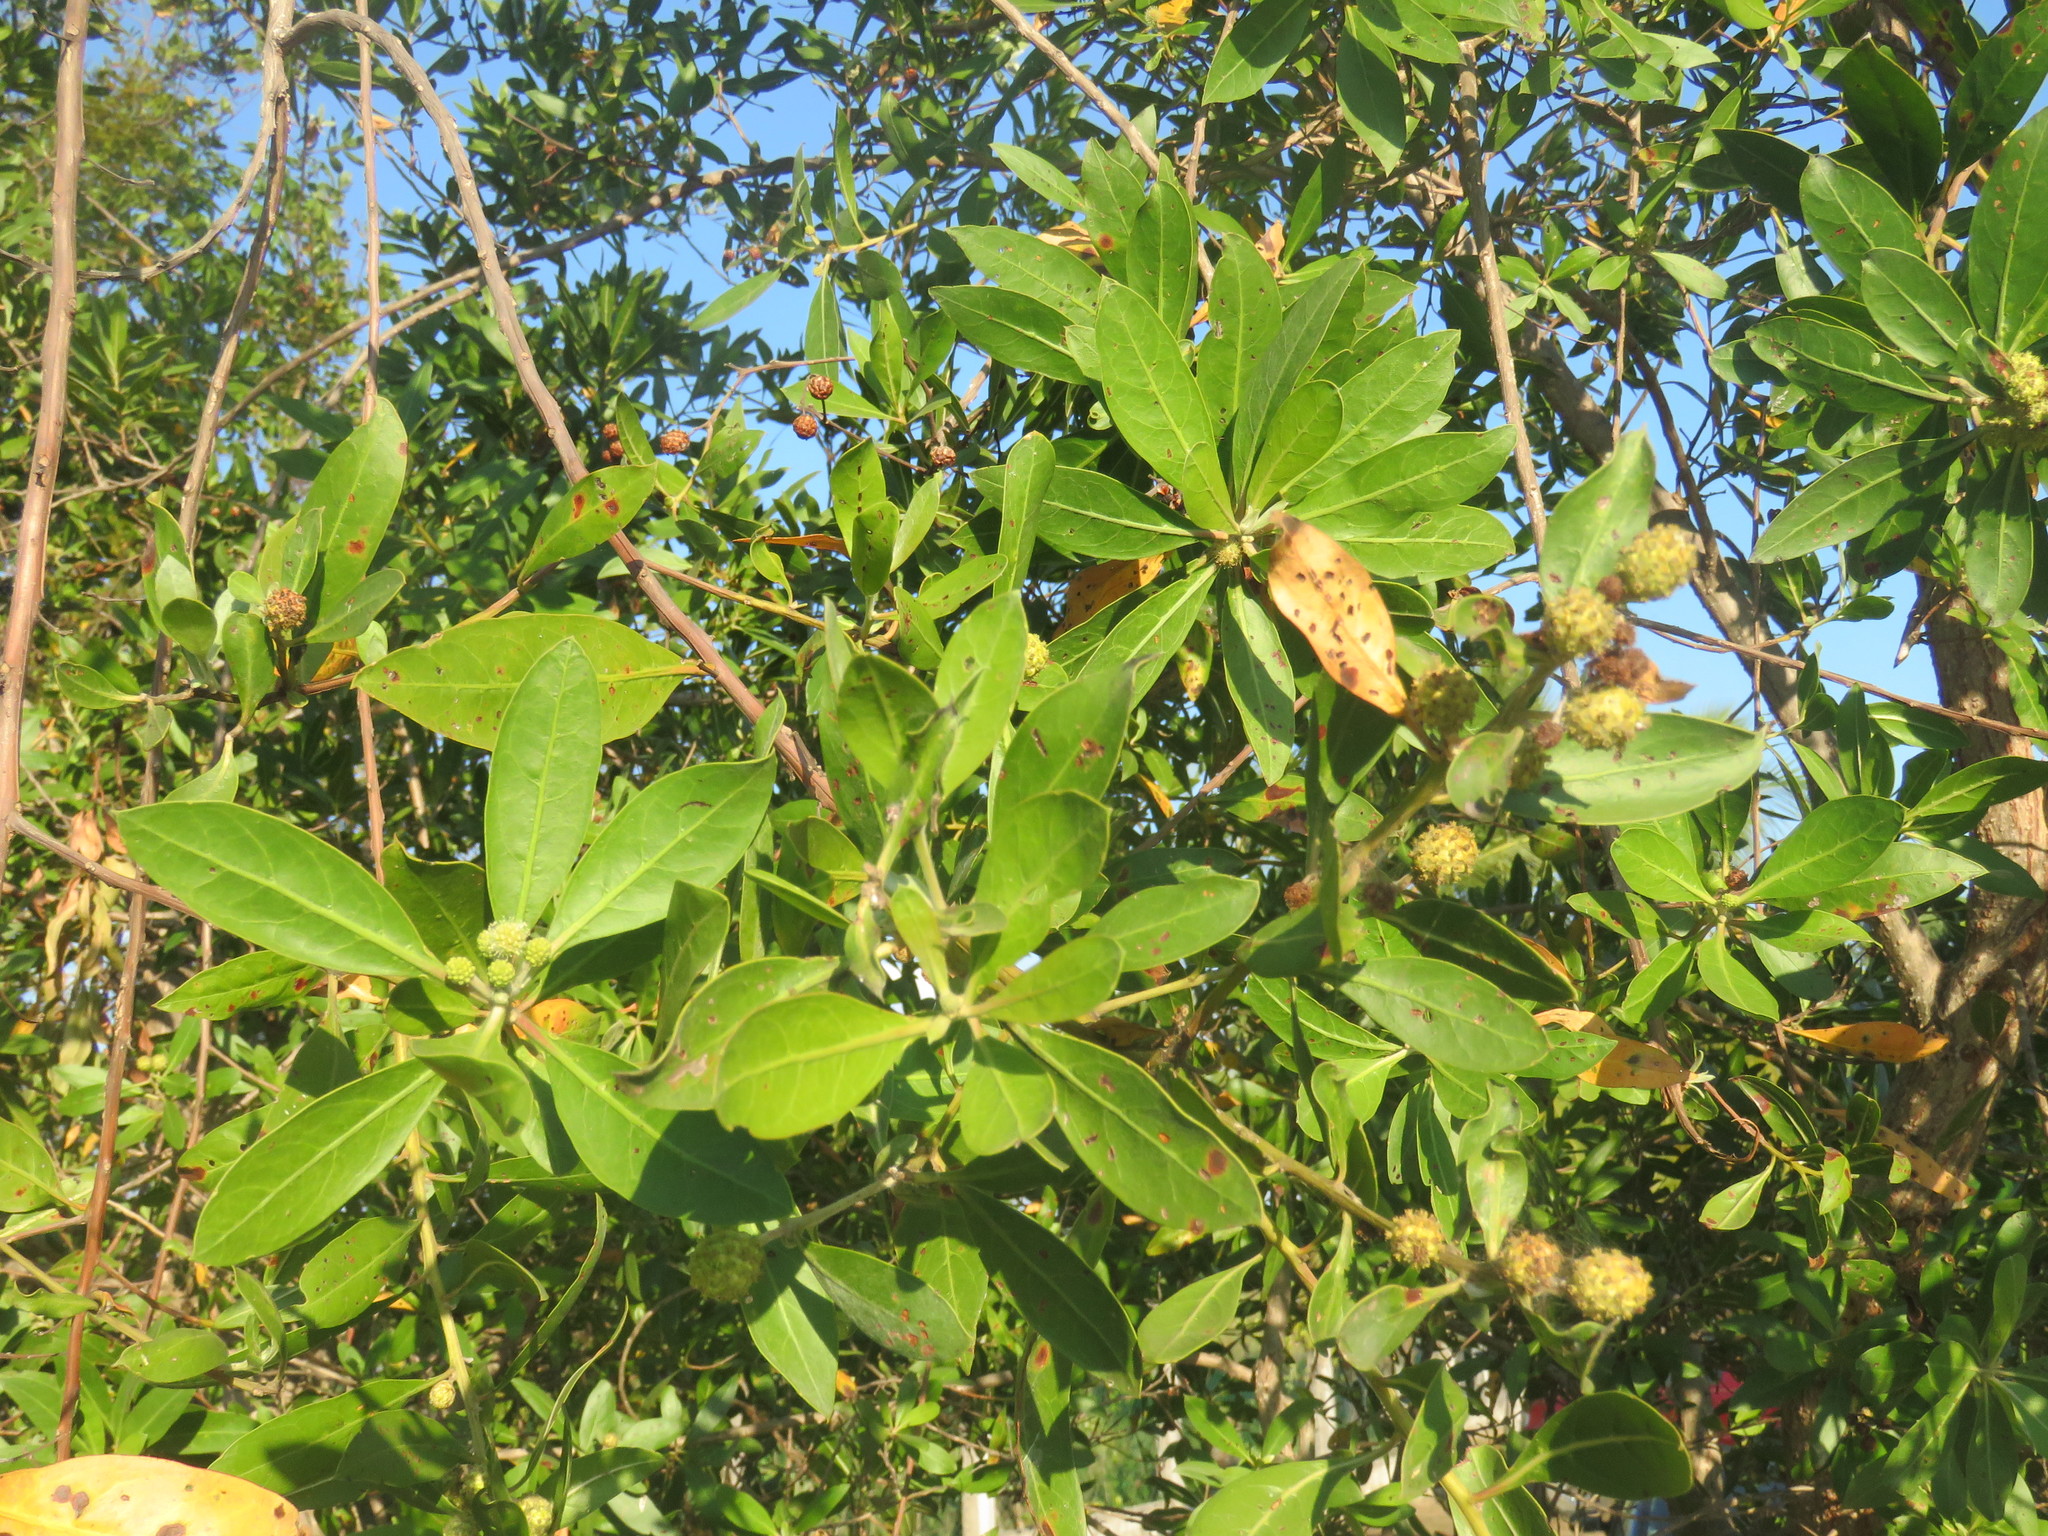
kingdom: Plantae
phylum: Tracheophyta
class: Magnoliopsida
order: Myrtales
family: Combretaceae
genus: Conocarpus
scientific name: Conocarpus erectus
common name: Button mangrove
